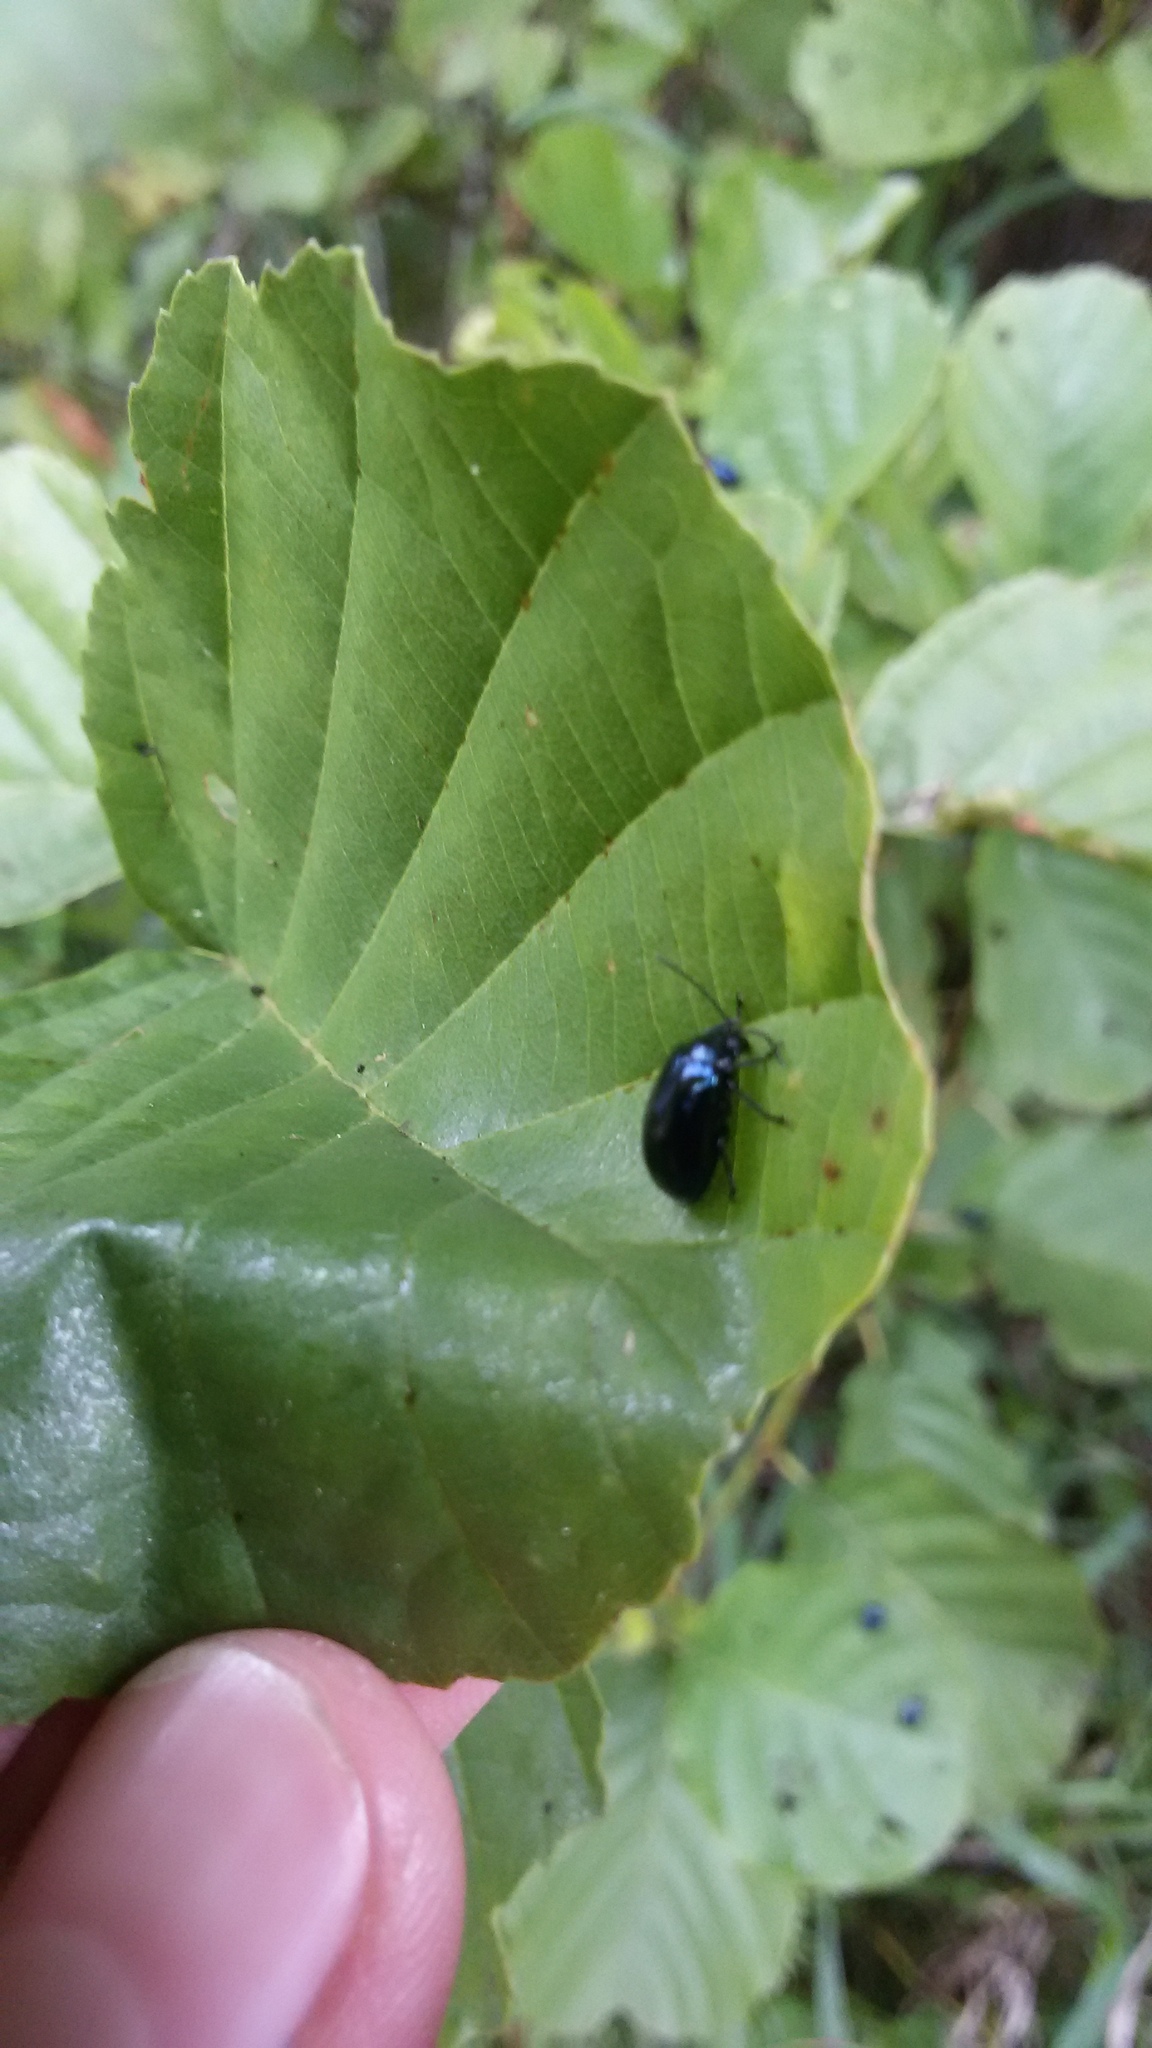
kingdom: Animalia
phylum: Arthropoda
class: Insecta
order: Coleoptera
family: Chrysomelidae
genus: Agelastica
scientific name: Agelastica alni
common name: Alder leaf beetle
